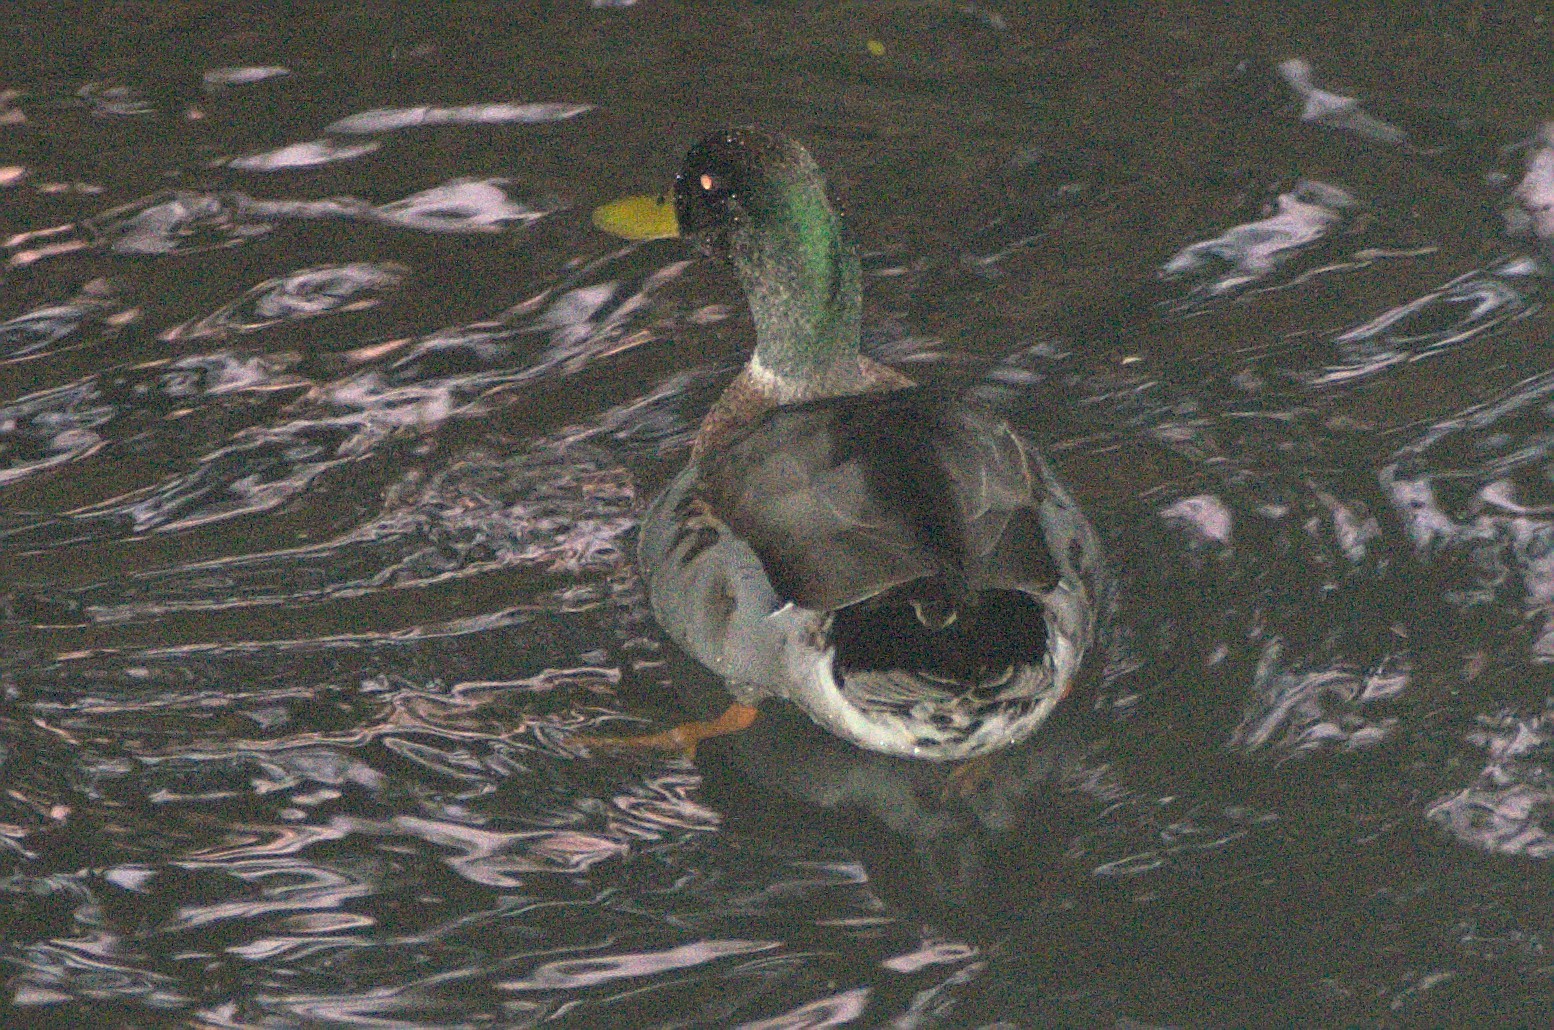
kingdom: Animalia
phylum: Chordata
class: Aves
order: Anseriformes
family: Anatidae
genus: Anas
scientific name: Anas platyrhynchos
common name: Mallard
